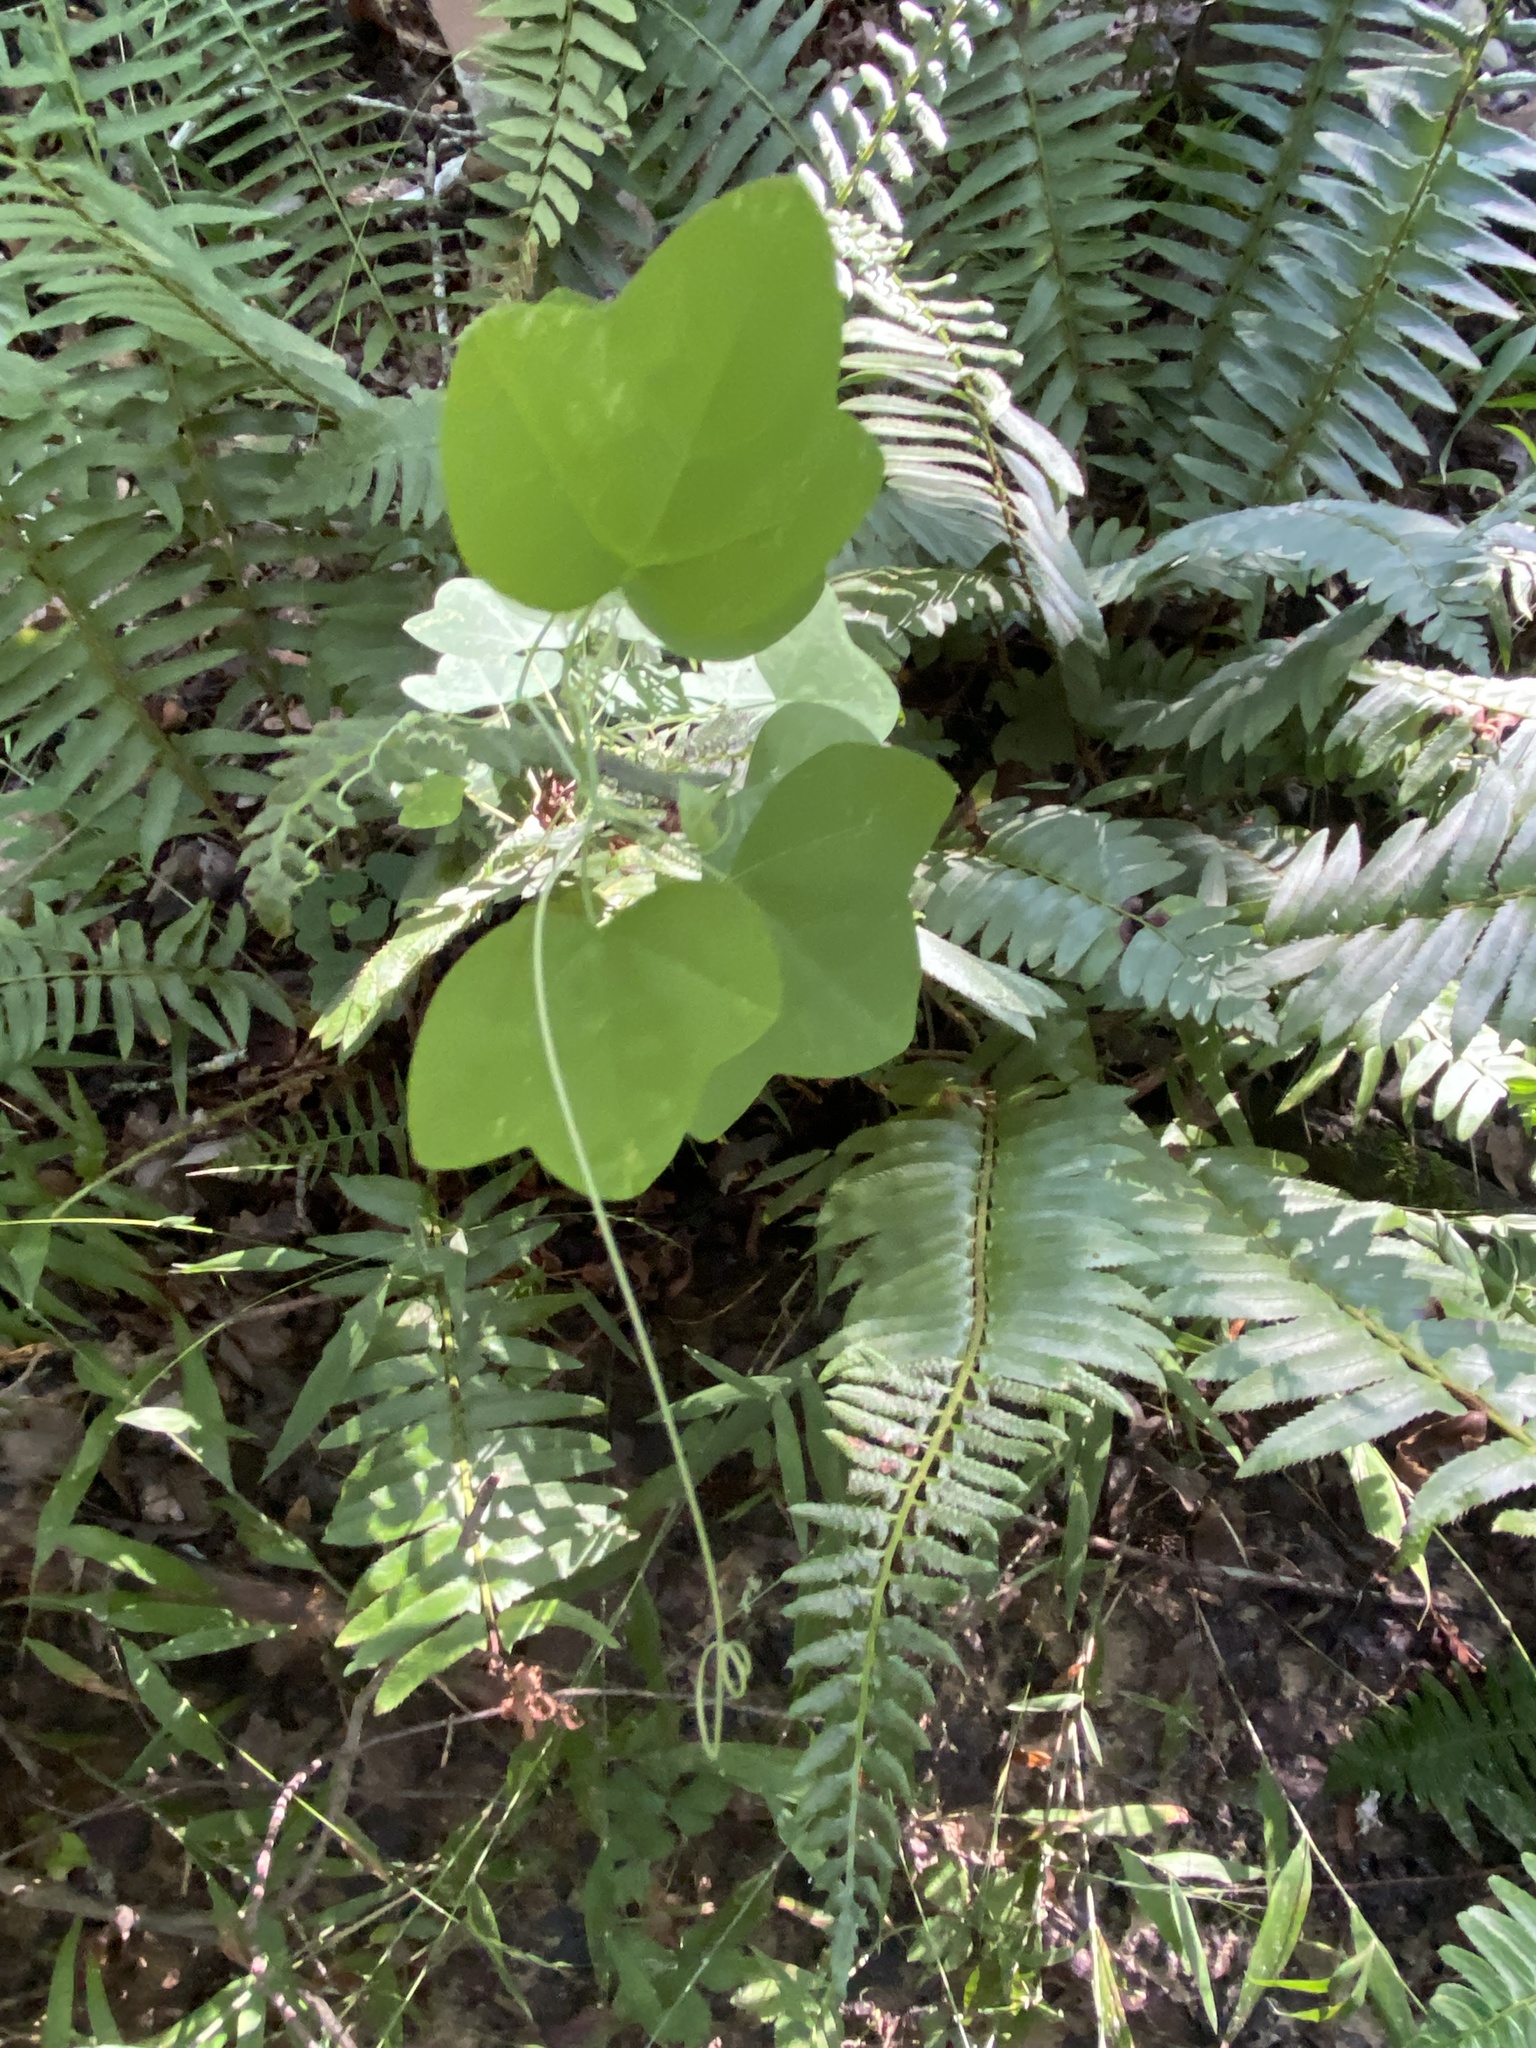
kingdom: Plantae
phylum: Tracheophyta
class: Magnoliopsida
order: Malpighiales
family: Passifloraceae
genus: Passiflora
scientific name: Passiflora lutea
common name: Yellow passionflower
